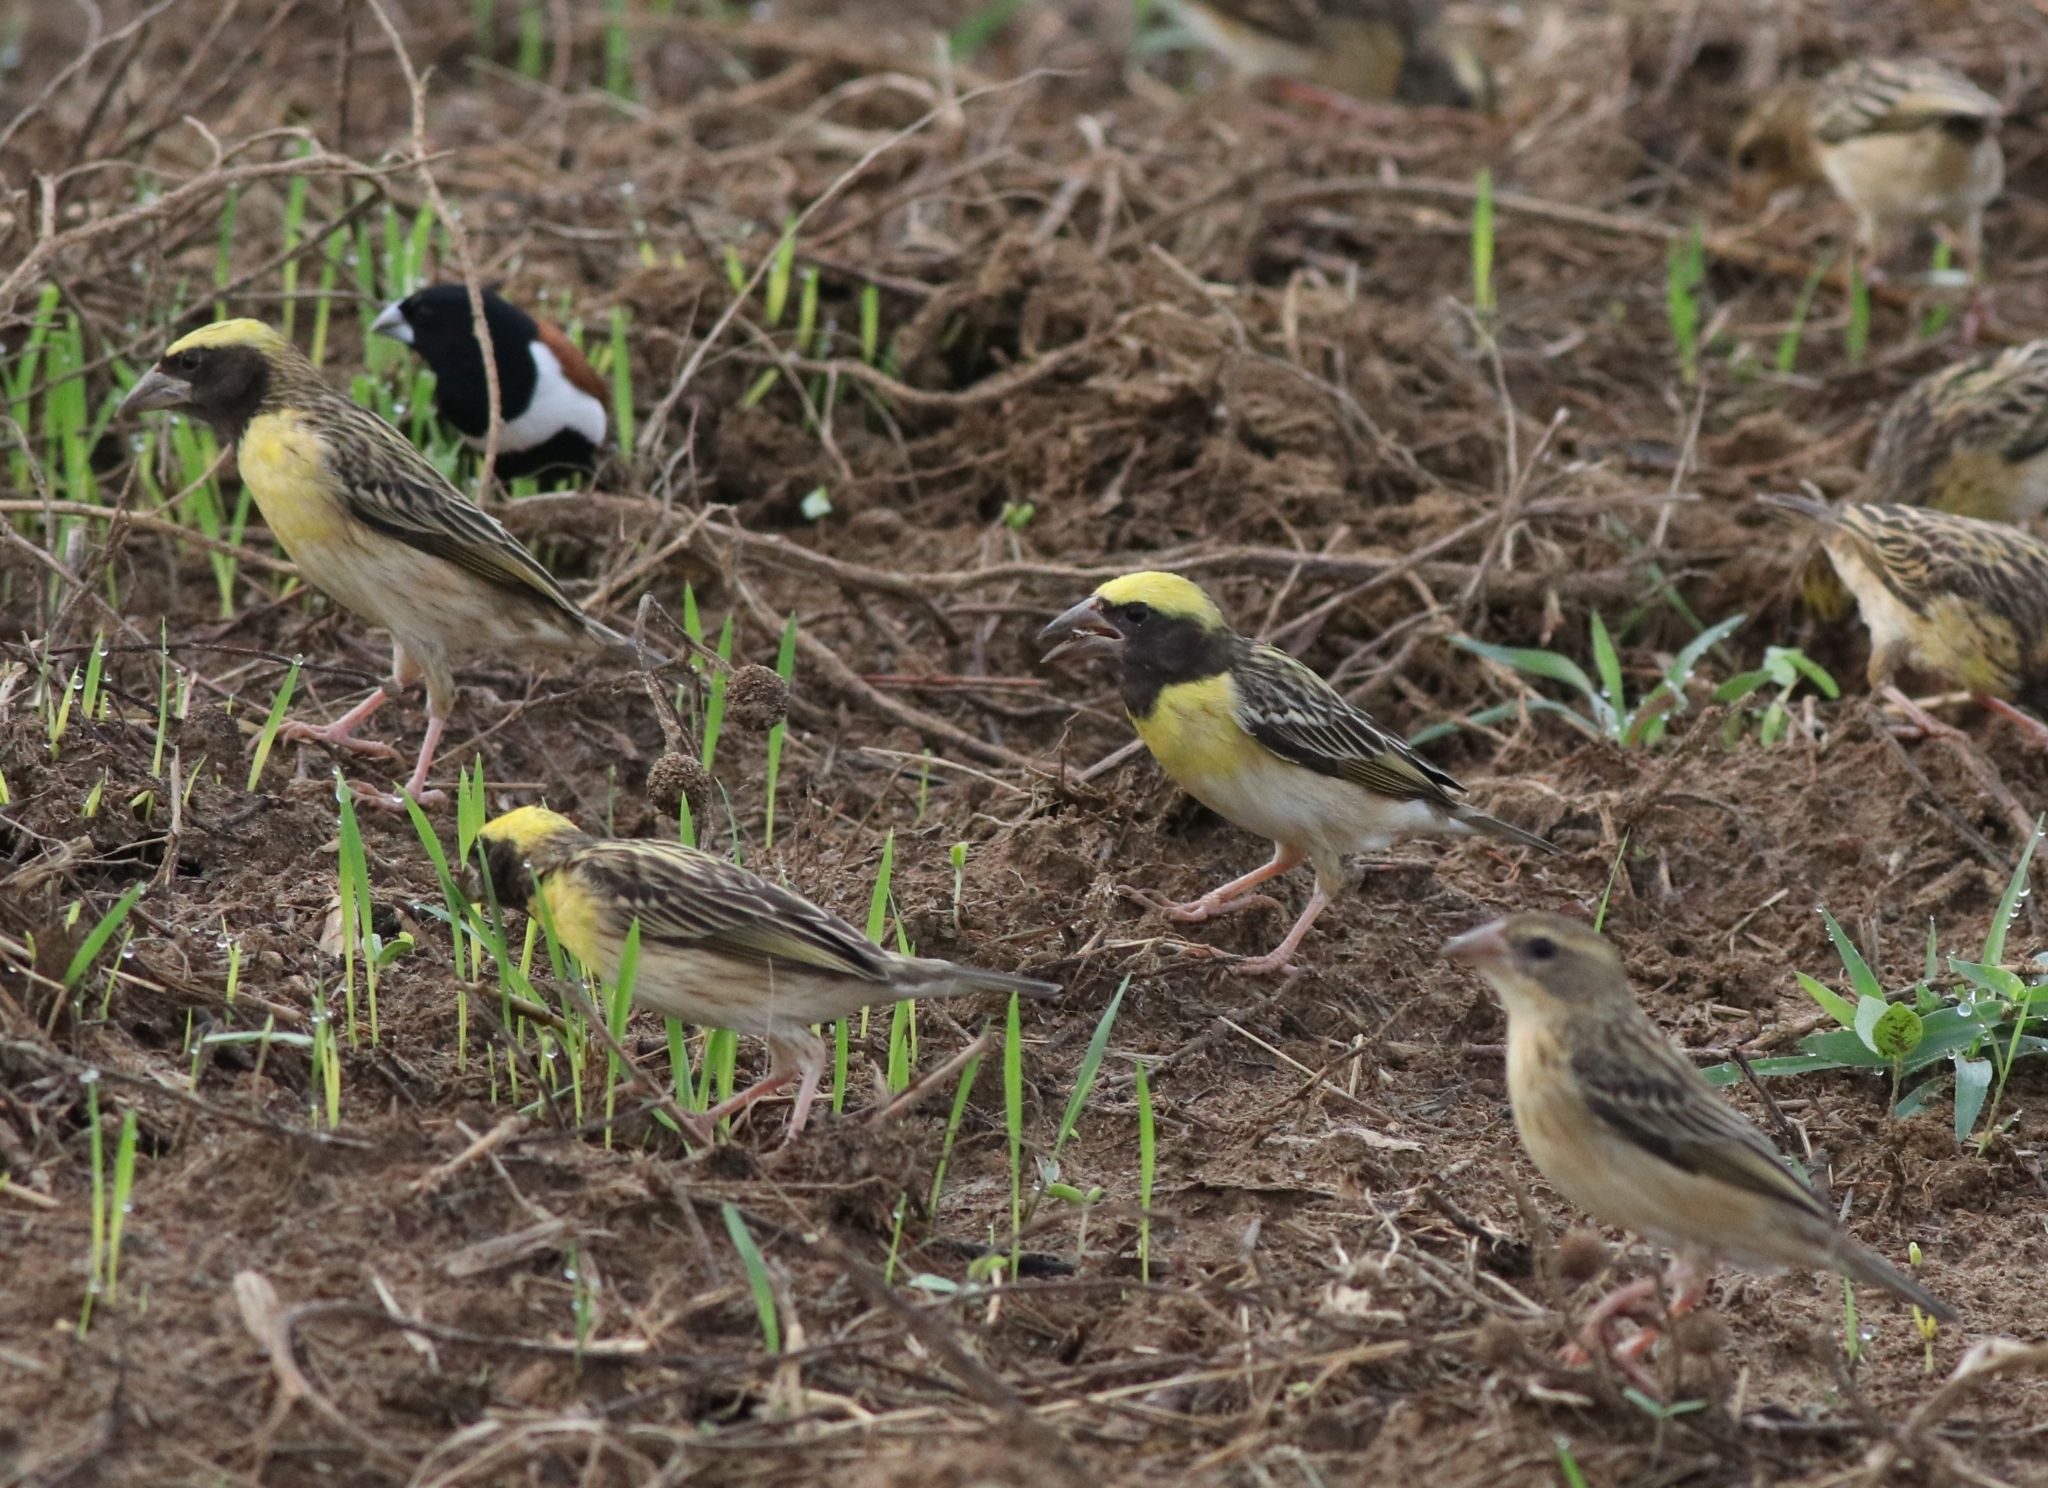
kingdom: Animalia
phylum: Chordata
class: Aves
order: Passeriformes
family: Ploceidae
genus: Ploceus
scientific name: Ploceus philippinus
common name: Baya weaver
